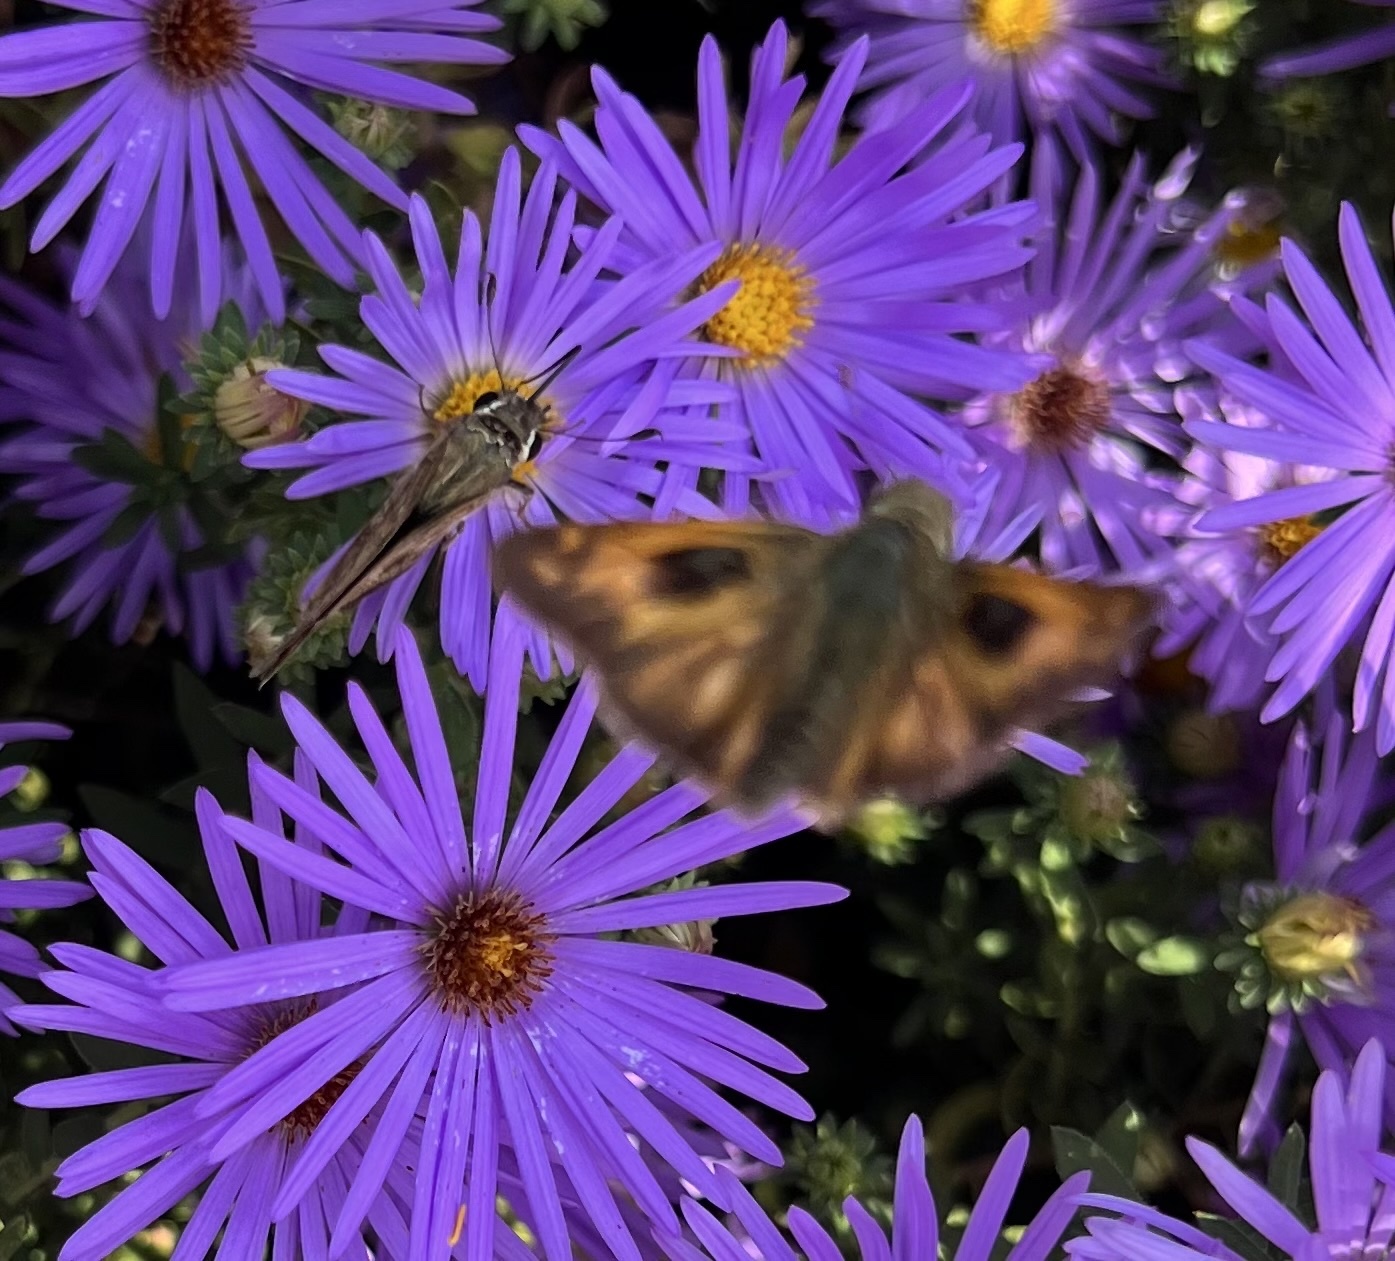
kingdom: Animalia
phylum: Arthropoda
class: Insecta
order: Lepidoptera
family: Hesperiidae
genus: Atalopedes
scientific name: Atalopedes
